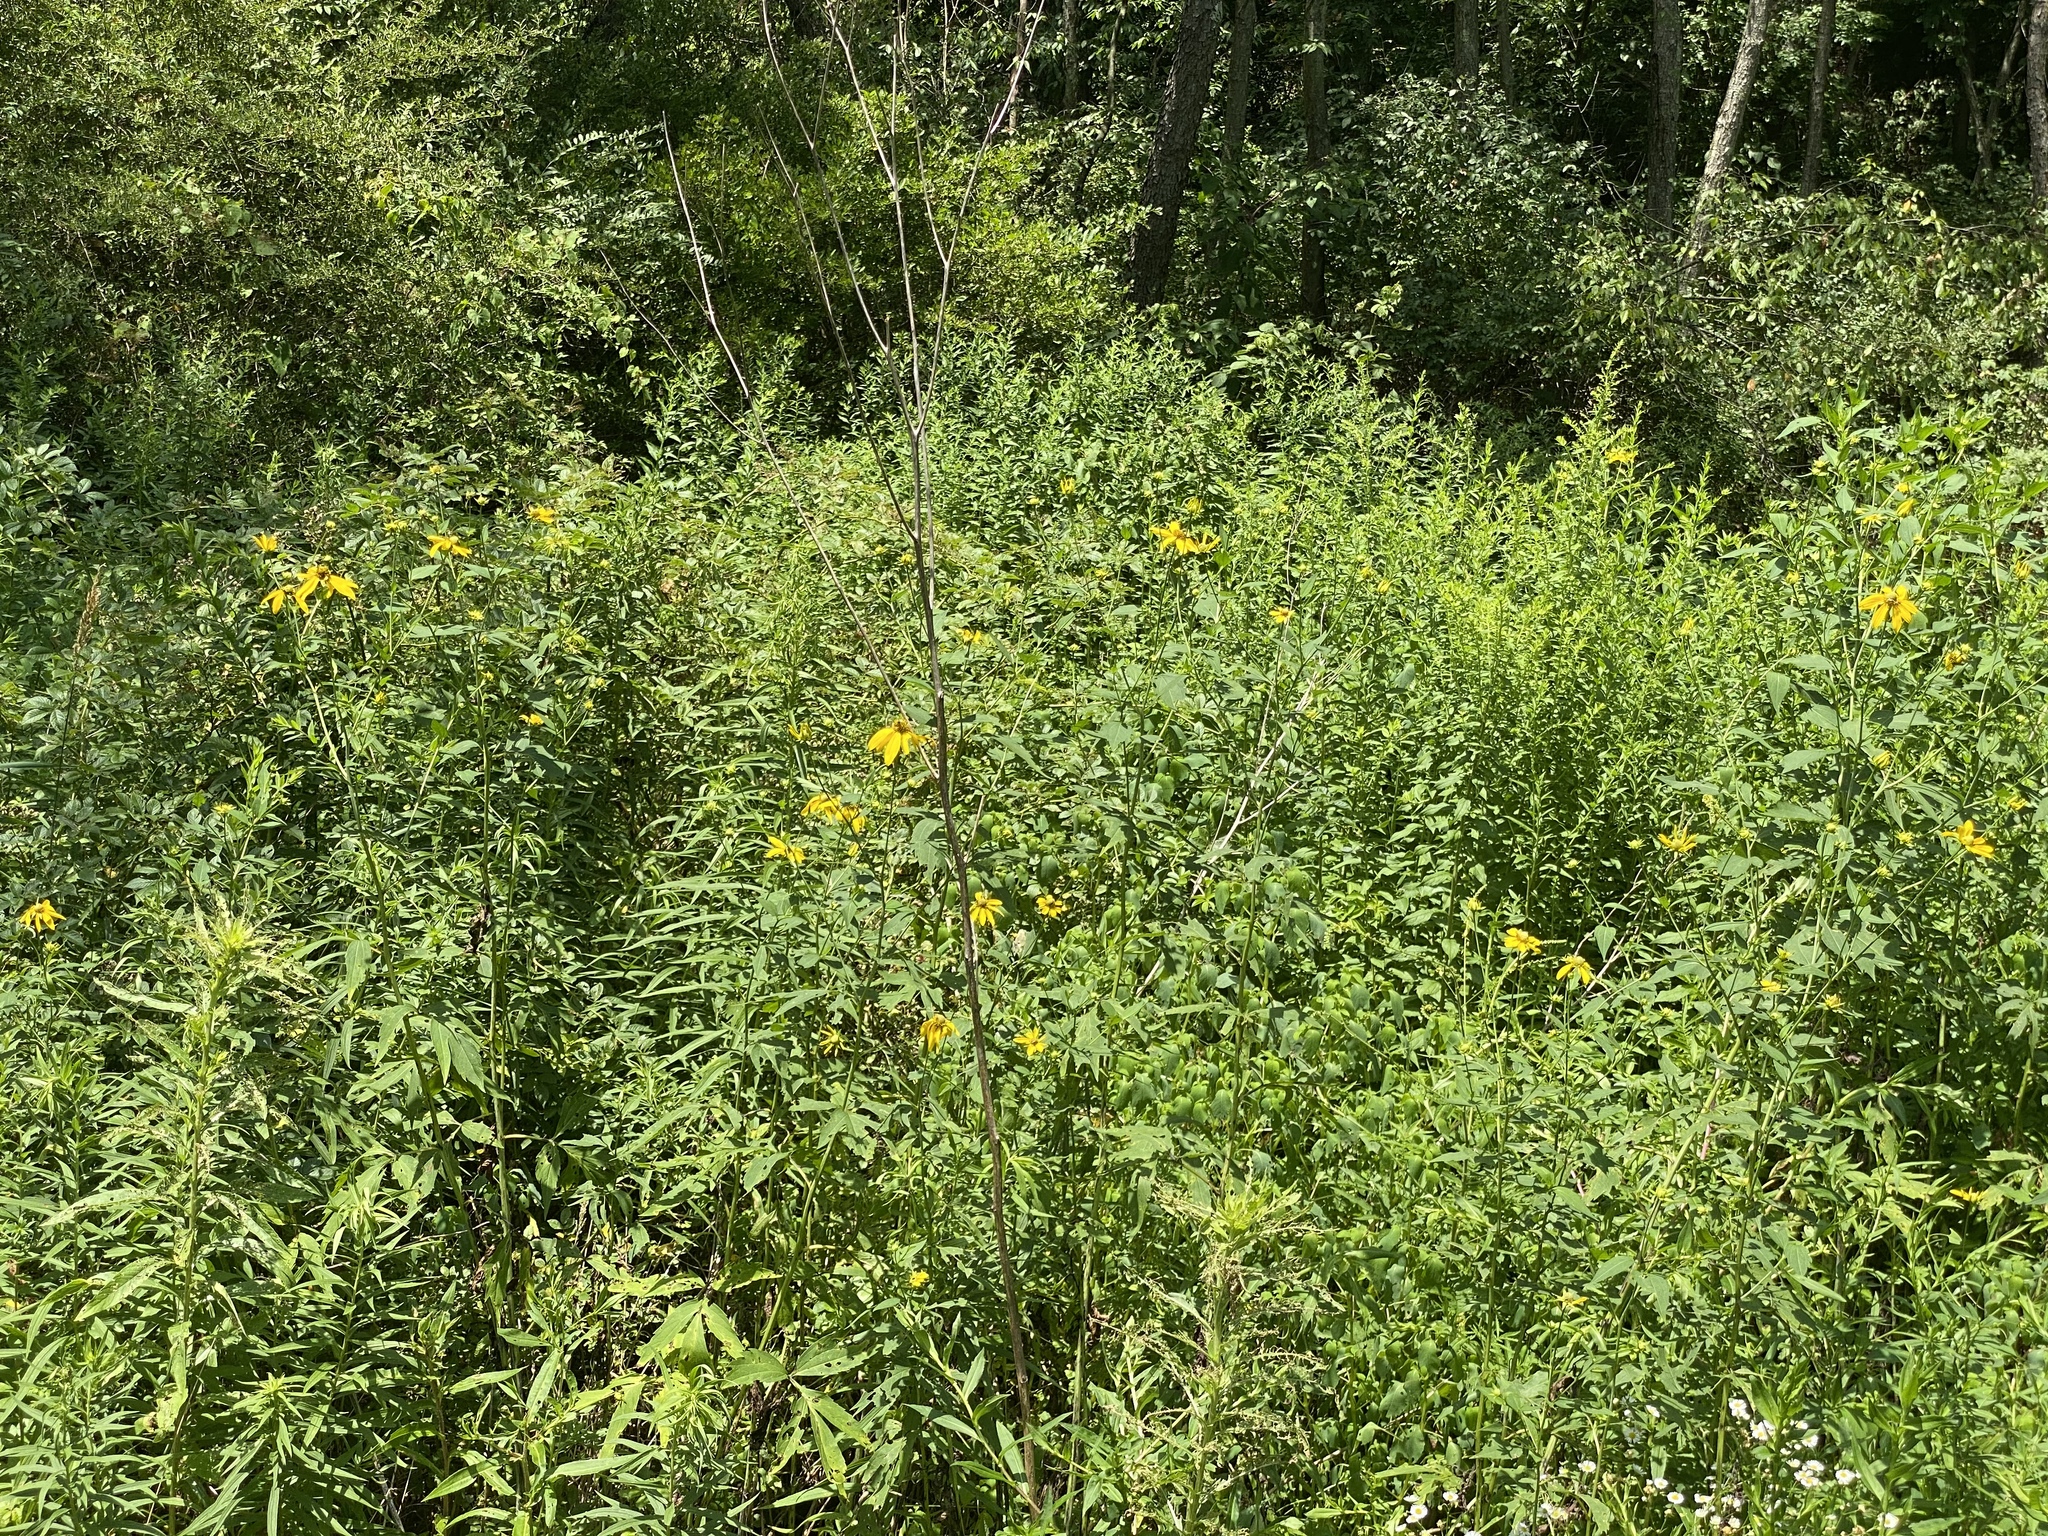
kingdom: Plantae
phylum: Tracheophyta
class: Magnoliopsida
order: Asterales
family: Asteraceae
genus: Rudbeckia
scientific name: Rudbeckia laciniata
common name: Coneflower
